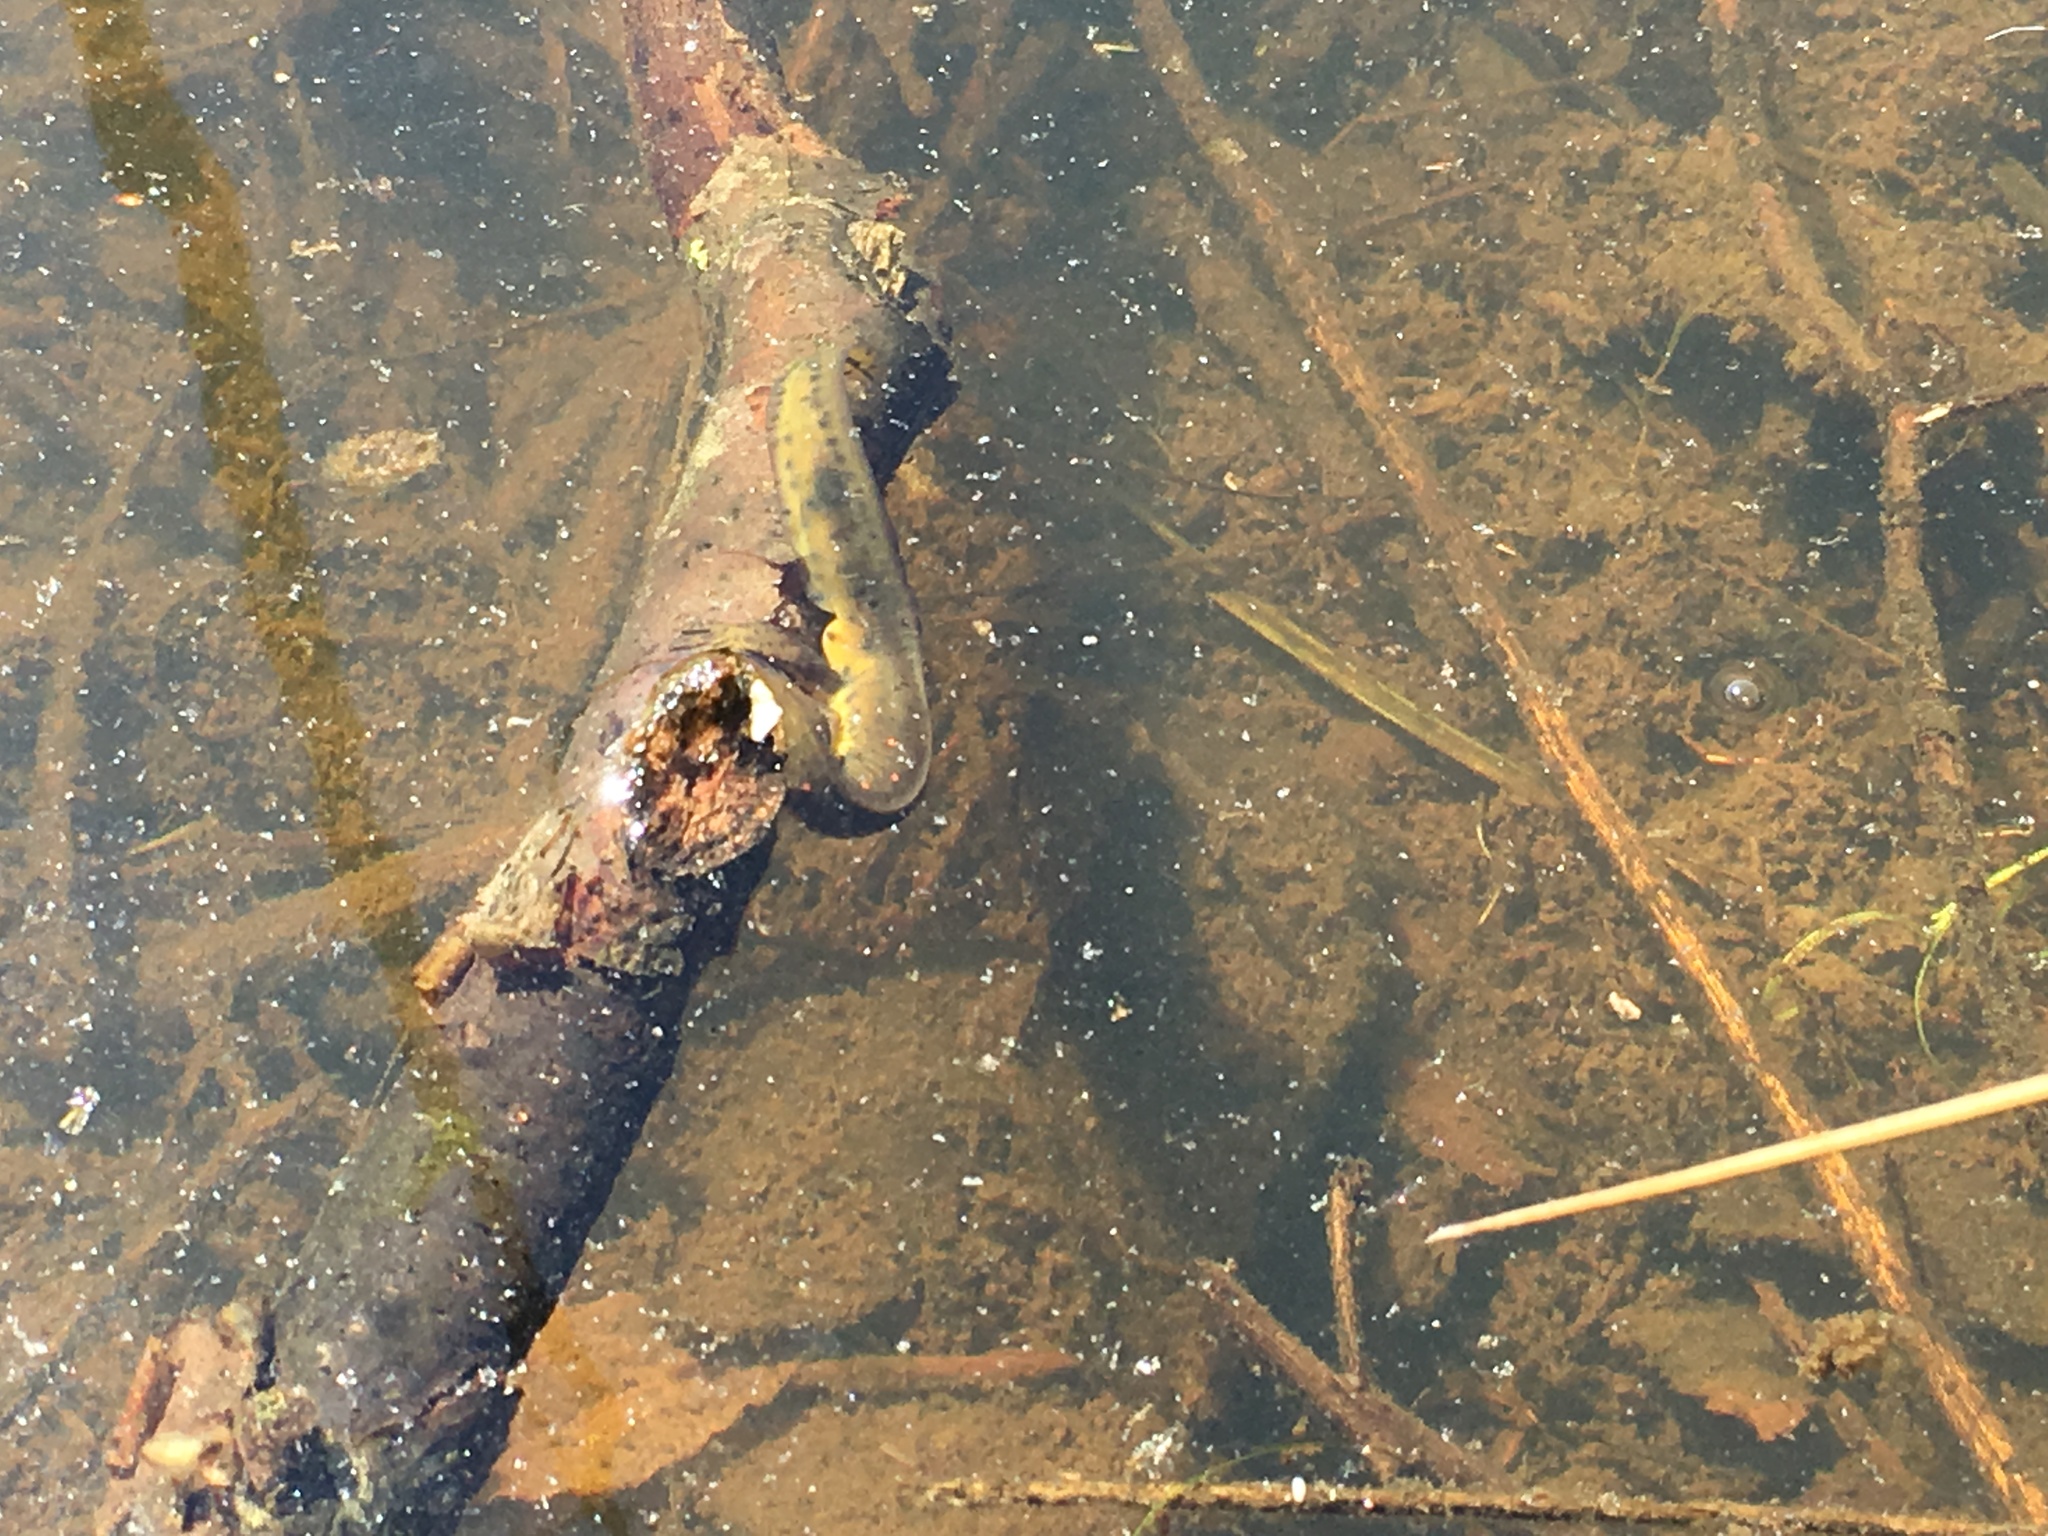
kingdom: Animalia
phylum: Chordata
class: Amphibia
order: Caudata
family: Salamandridae
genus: Notophthalmus
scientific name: Notophthalmus viridescens
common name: Eastern newt
